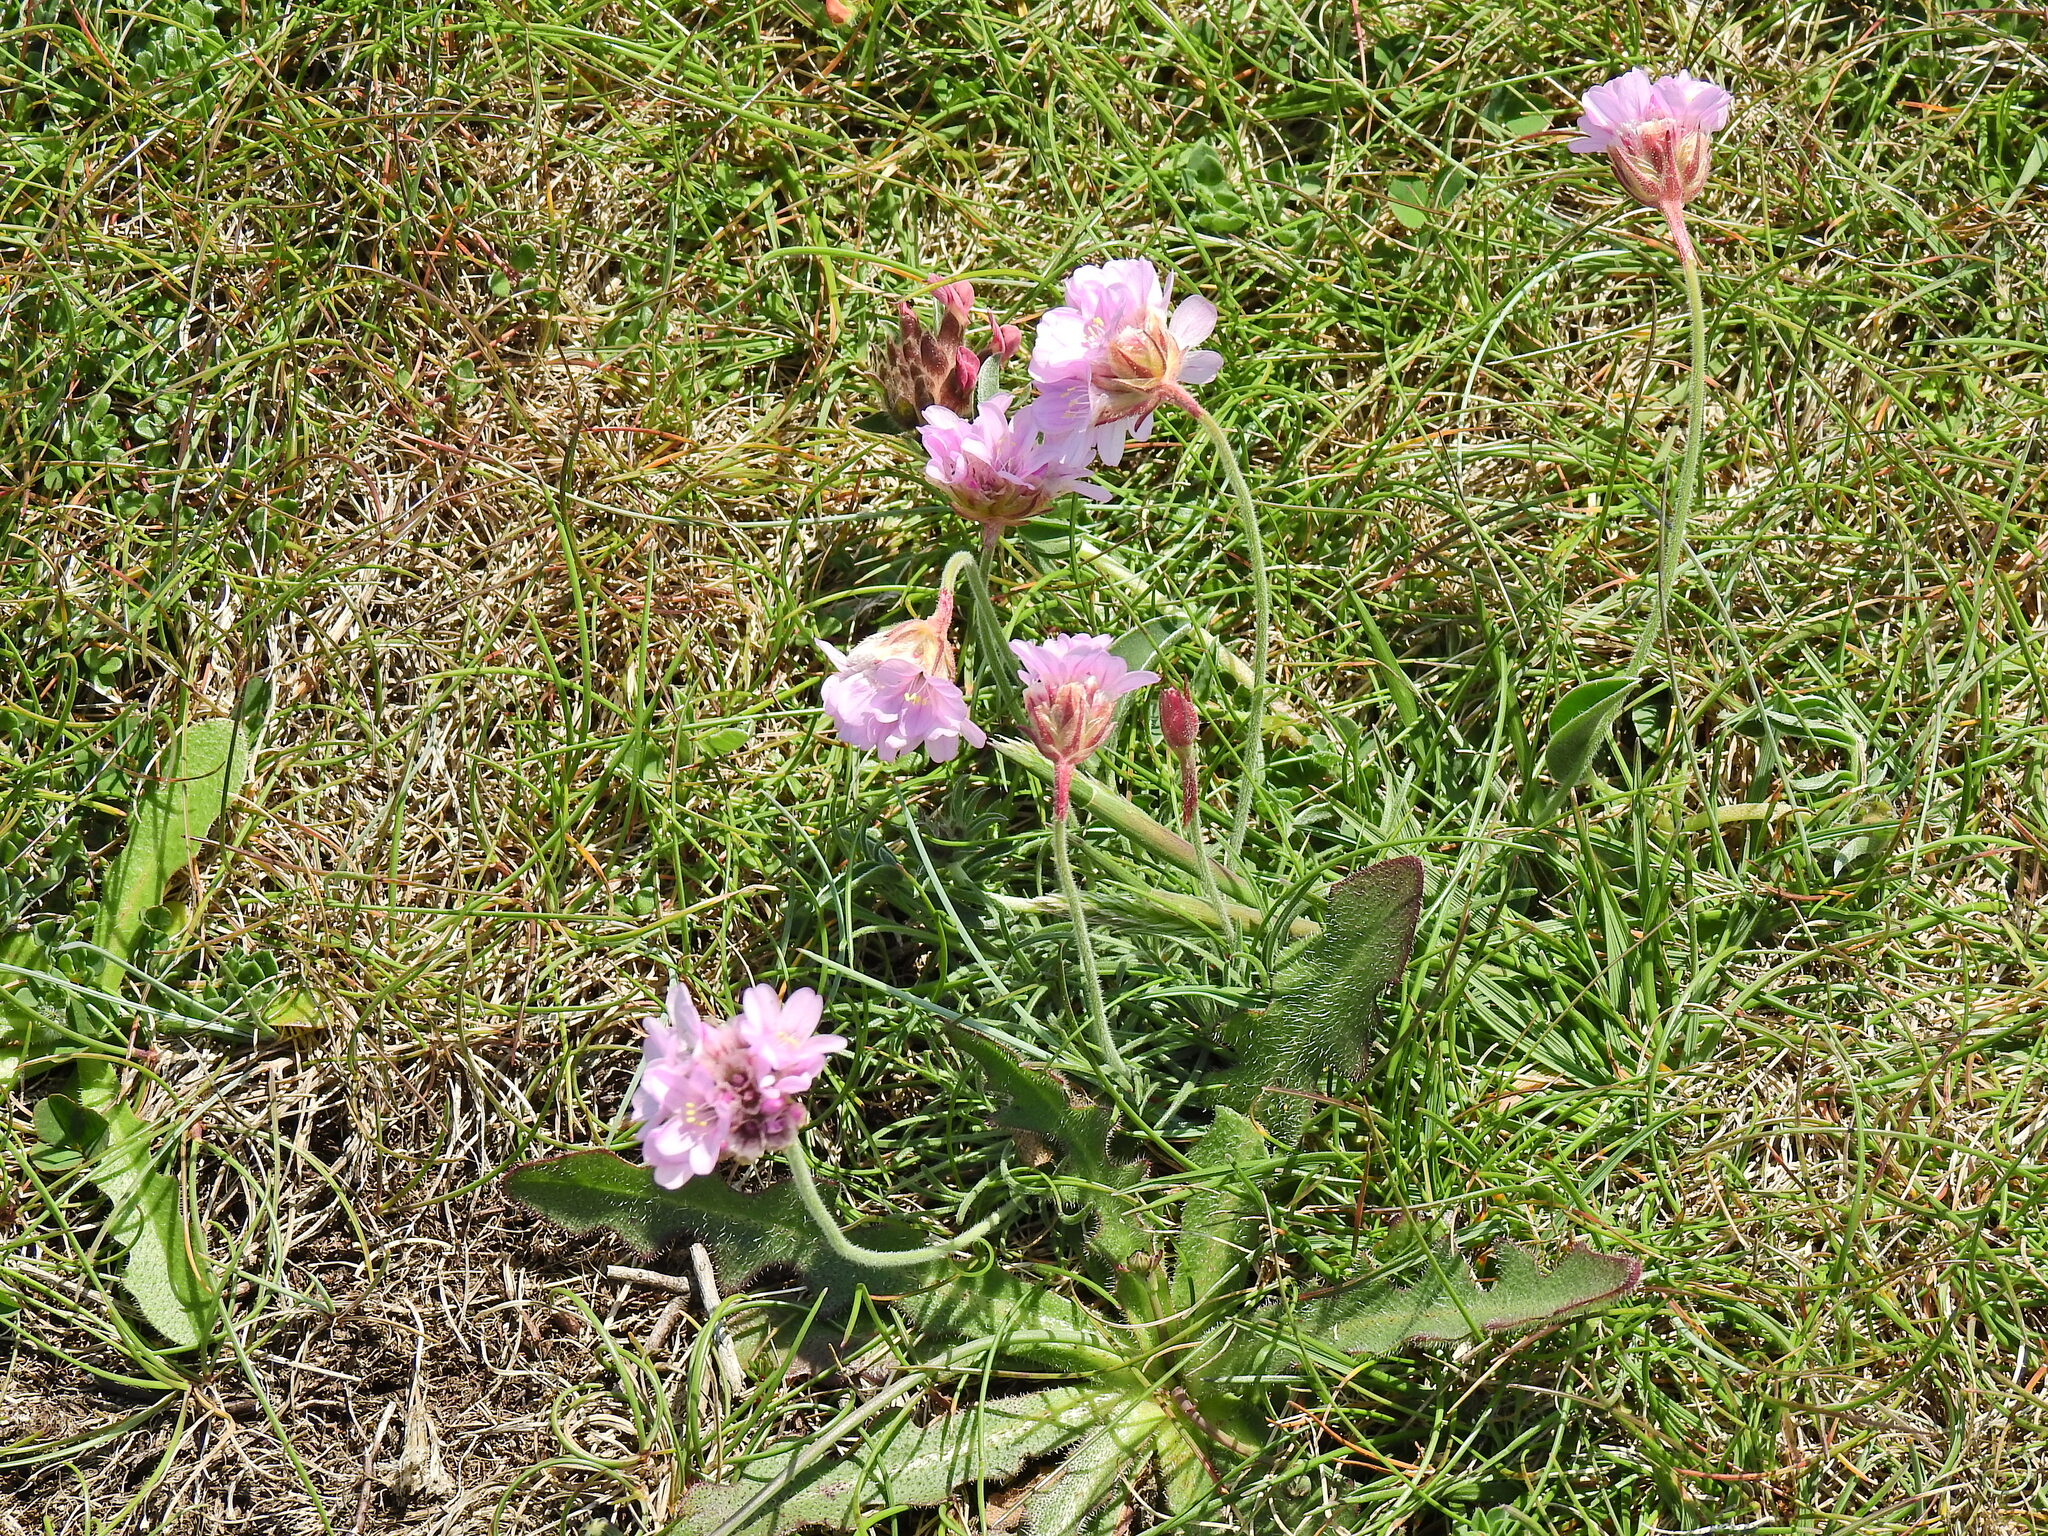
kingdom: Plantae
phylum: Tracheophyta
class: Magnoliopsida
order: Caryophyllales
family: Plumbaginaceae
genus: Armeria
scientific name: Armeria maritima
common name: Thrift
